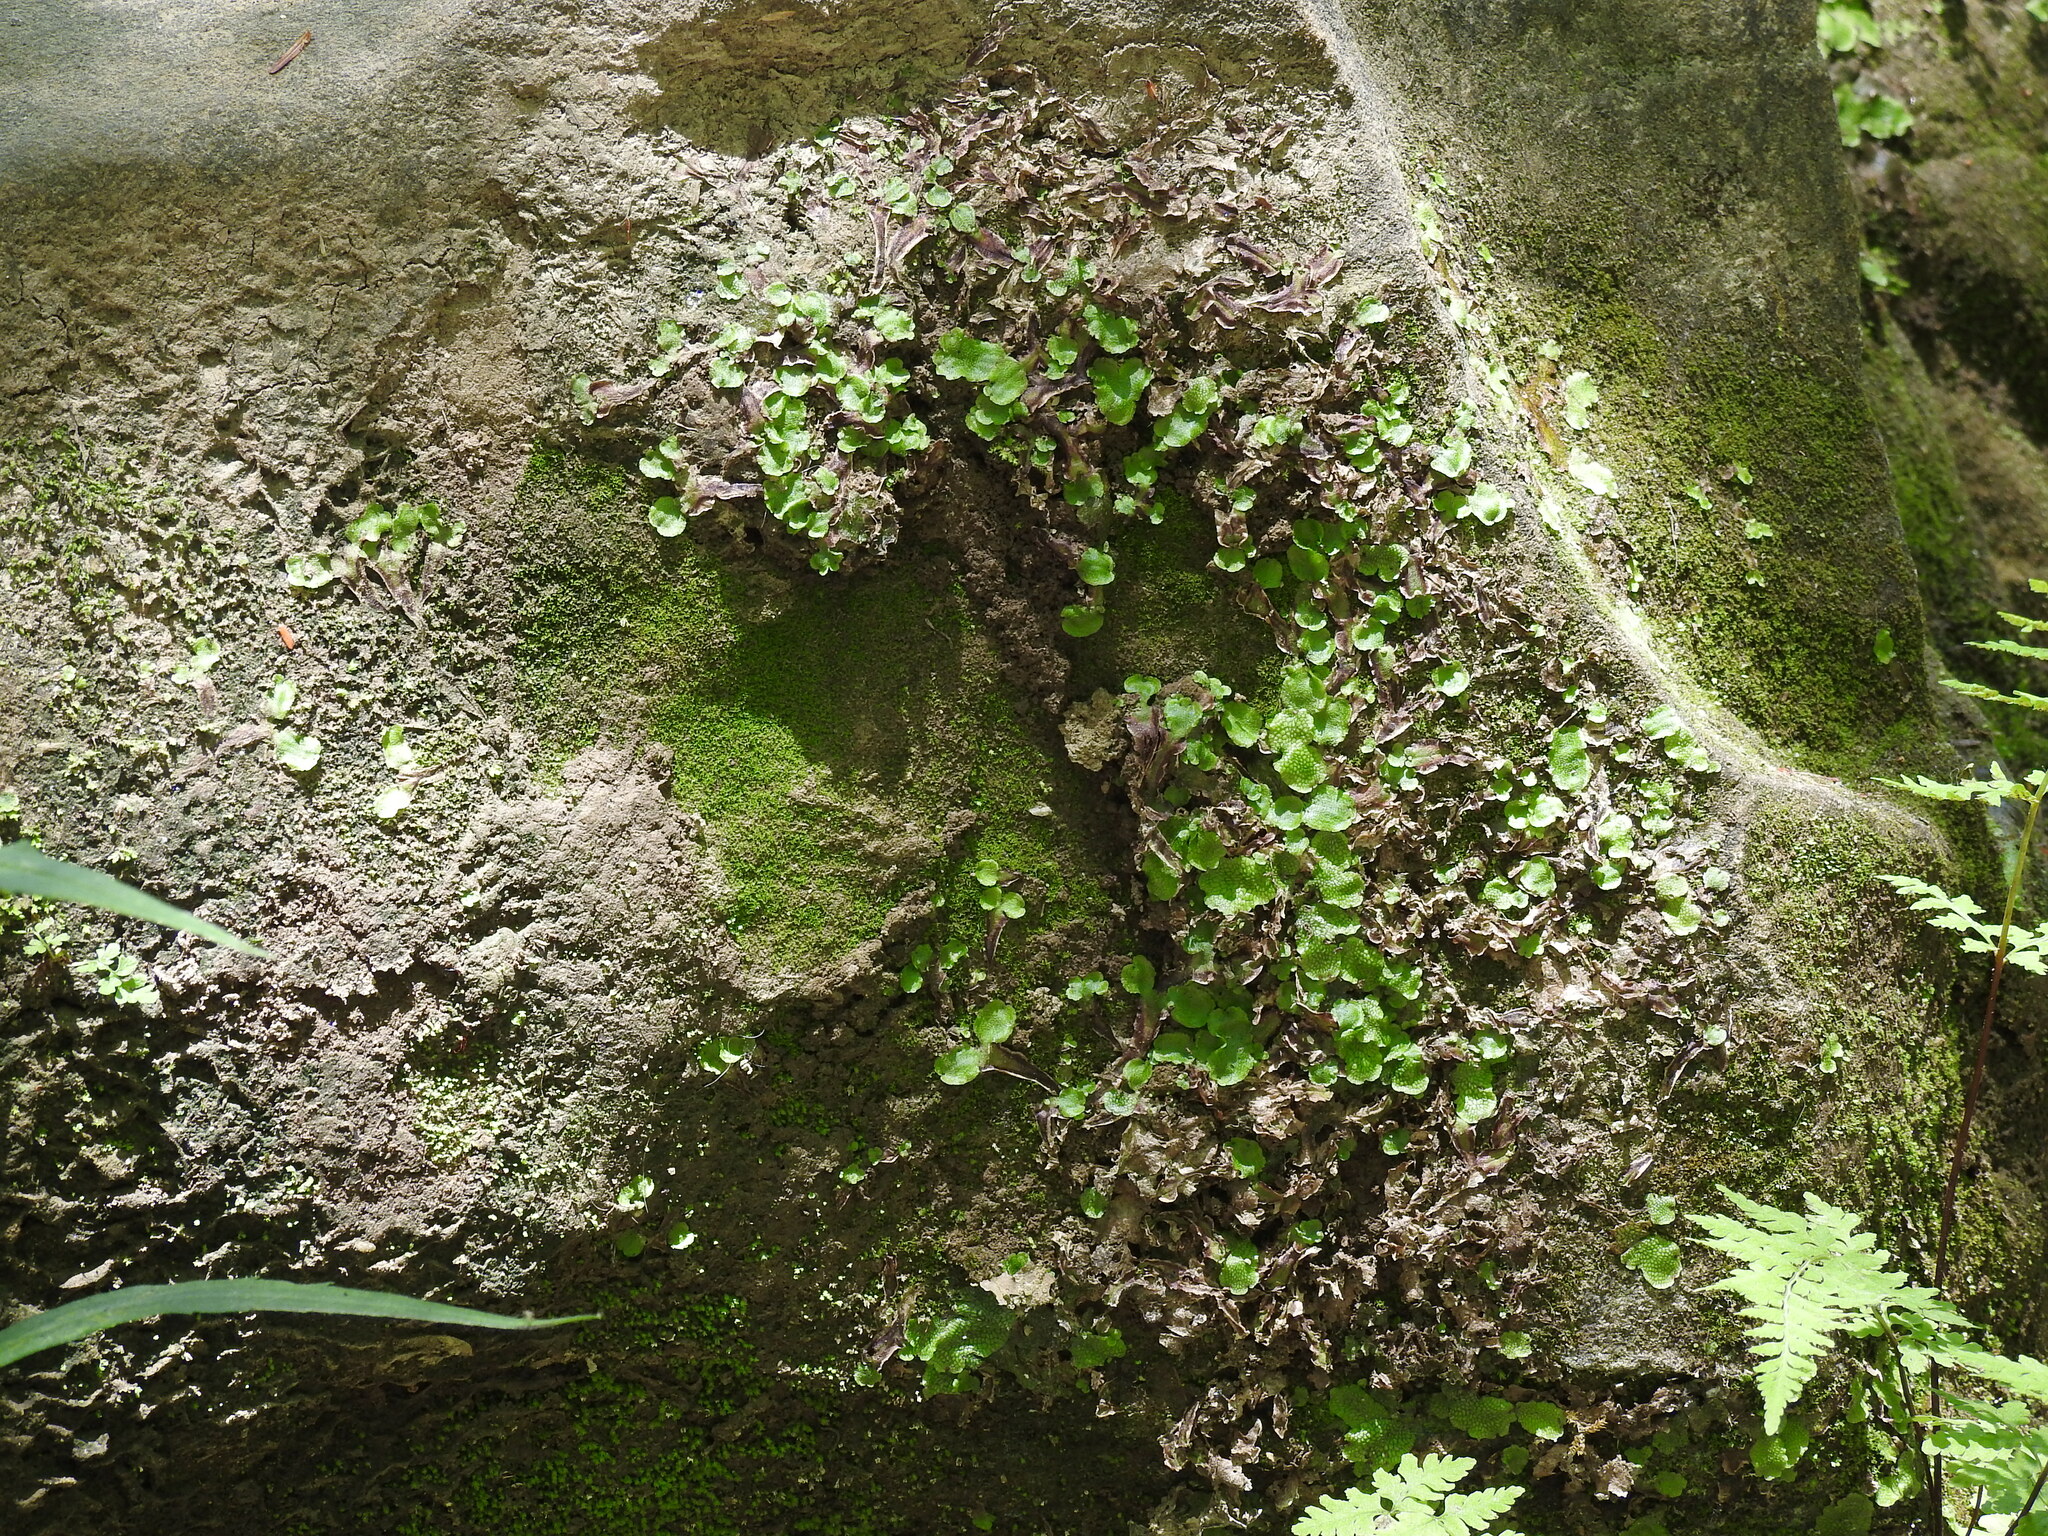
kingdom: Plantae
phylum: Marchantiophyta
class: Marchantiopsida
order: Marchantiales
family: Conocephalaceae
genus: Conocephalum
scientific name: Conocephalum salebrosum
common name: Cat-tongue liverwort
